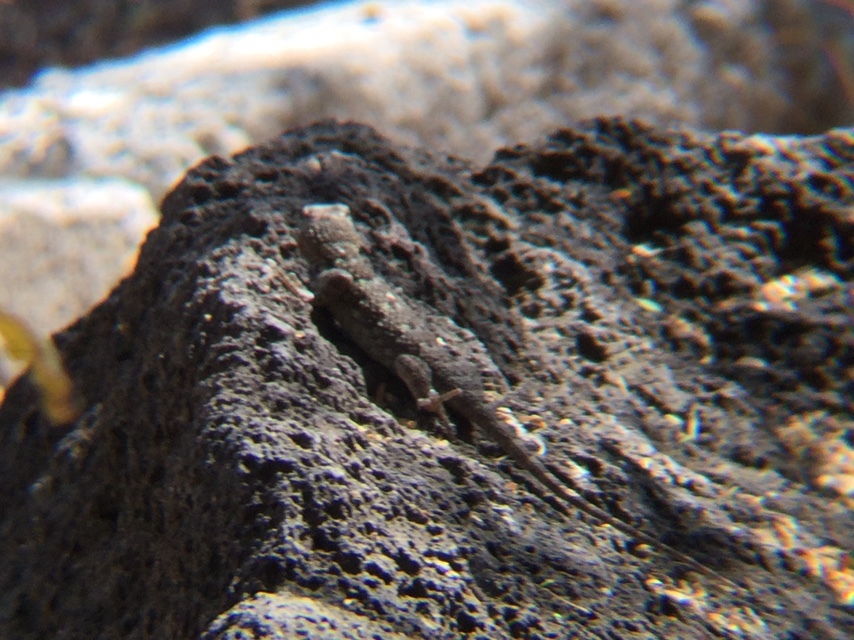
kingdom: Animalia
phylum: Chordata
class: Squamata
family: Phrynosomatidae
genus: Sceloporus
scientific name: Sceloporus grammicus
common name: Mesquite lizard
